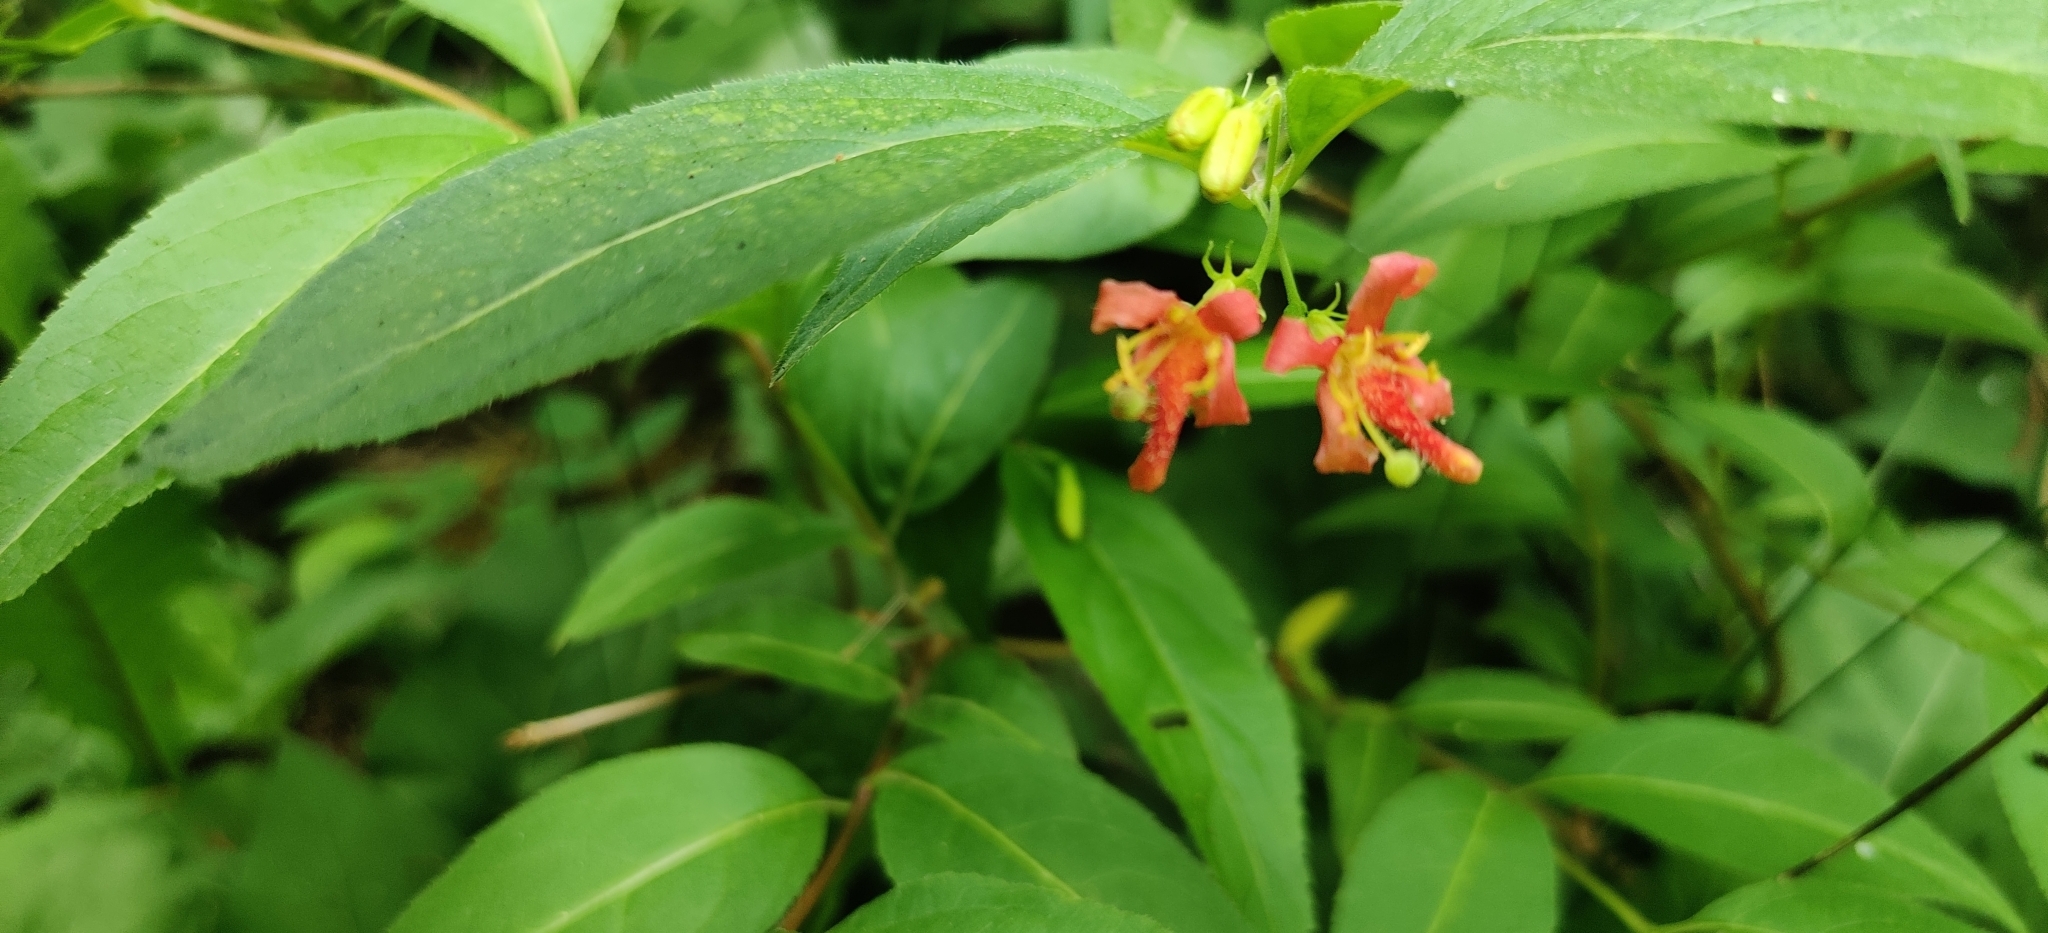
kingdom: Plantae
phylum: Tracheophyta
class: Magnoliopsida
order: Dipsacales
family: Caprifoliaceae
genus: Diervilla
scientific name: Diervilla lonicera
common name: Bush-honeysuckle
